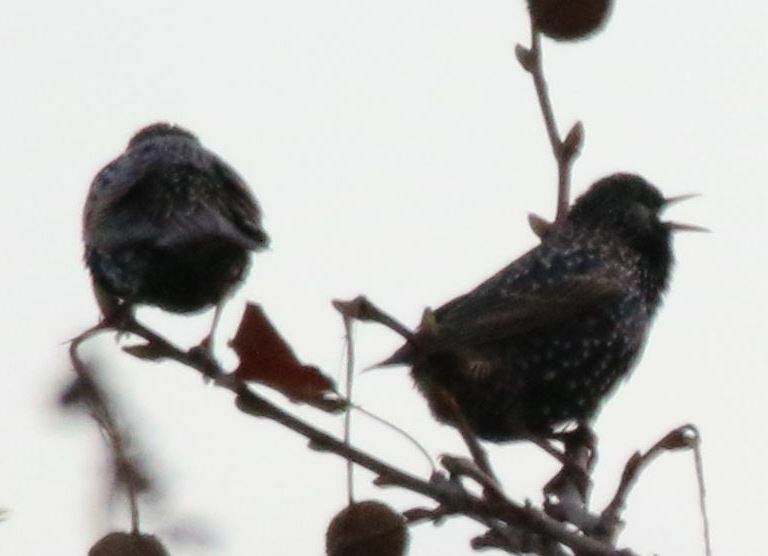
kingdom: Animalia
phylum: Chordata
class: Aves
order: Passeriformes
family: Sturnidae
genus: Sturnus
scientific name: Sturnus vulgaris
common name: Common starling
